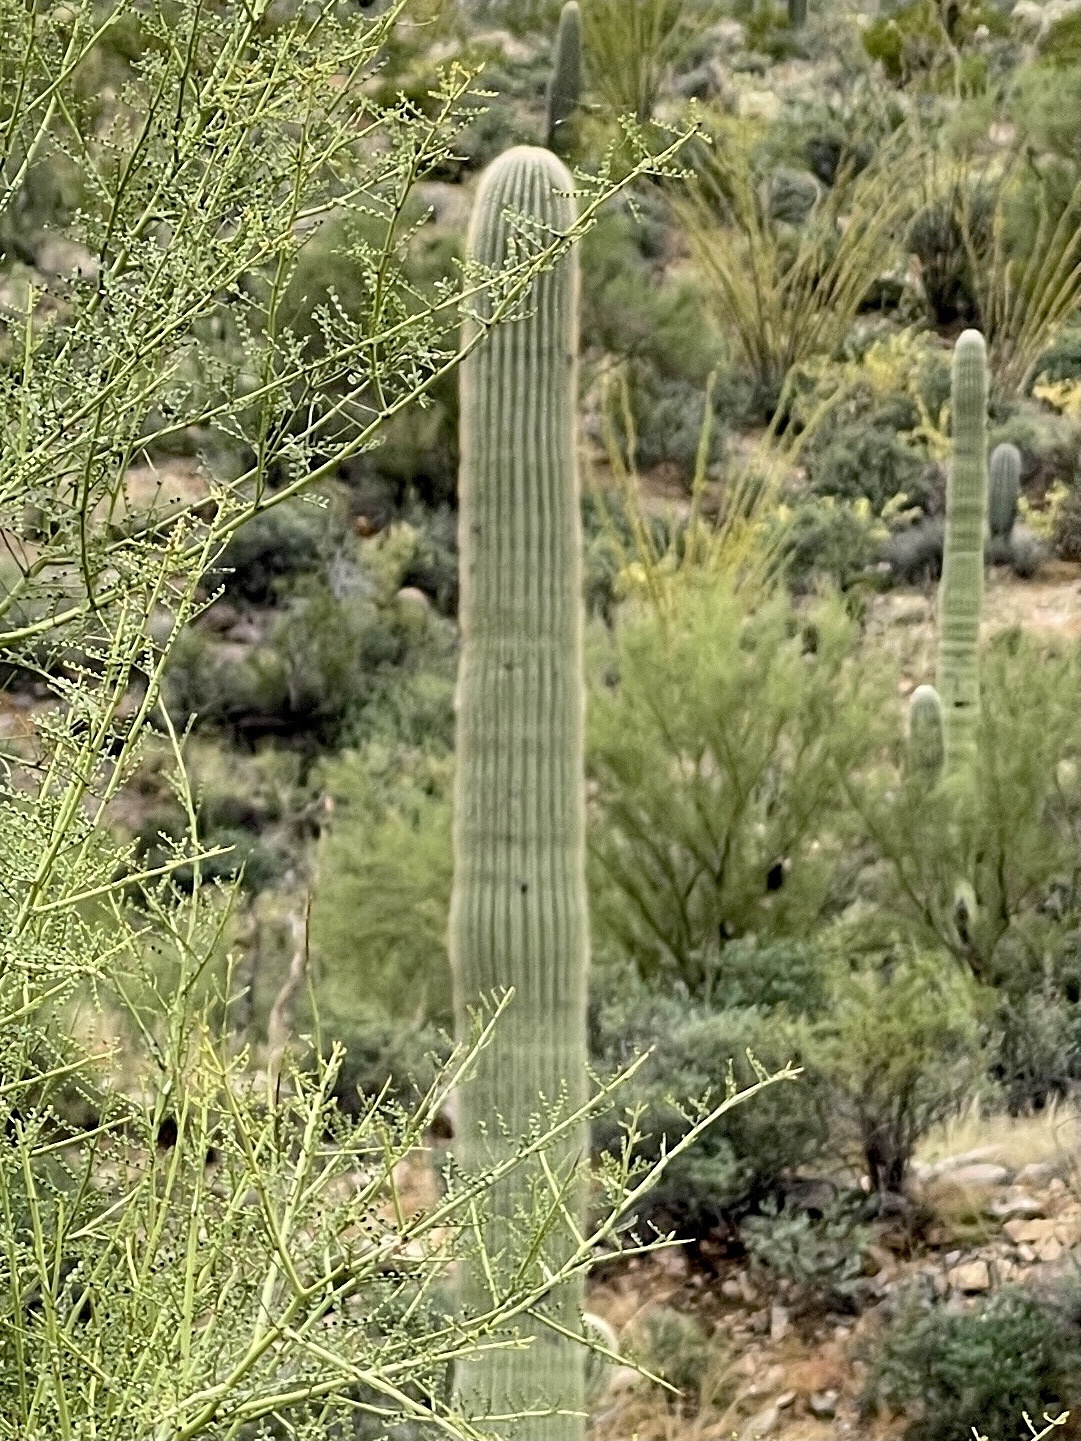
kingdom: Plantae
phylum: Tracheophyta
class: Magnoliopsida
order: Caryophyllales
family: Cactaceae
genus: Carnegiea
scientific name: Carnegiea gigantea
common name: Saguaro
